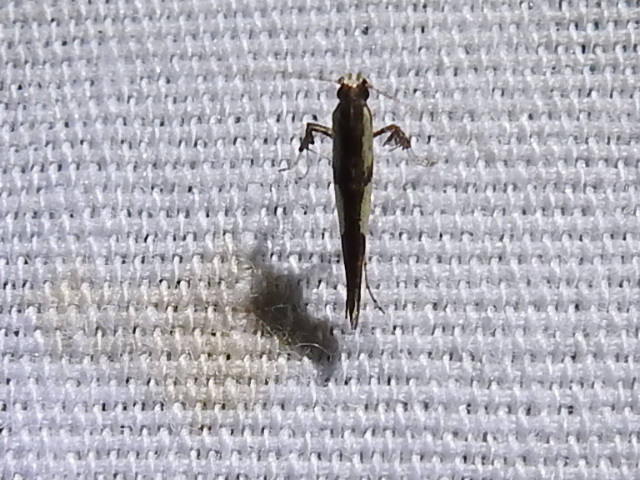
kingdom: Animalia
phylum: Arthropoda
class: Insecta
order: Lepidoptera
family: Gracillariidae
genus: Caloptilia
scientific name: Caloptilia blandella
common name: Walnut caloptilia moth
